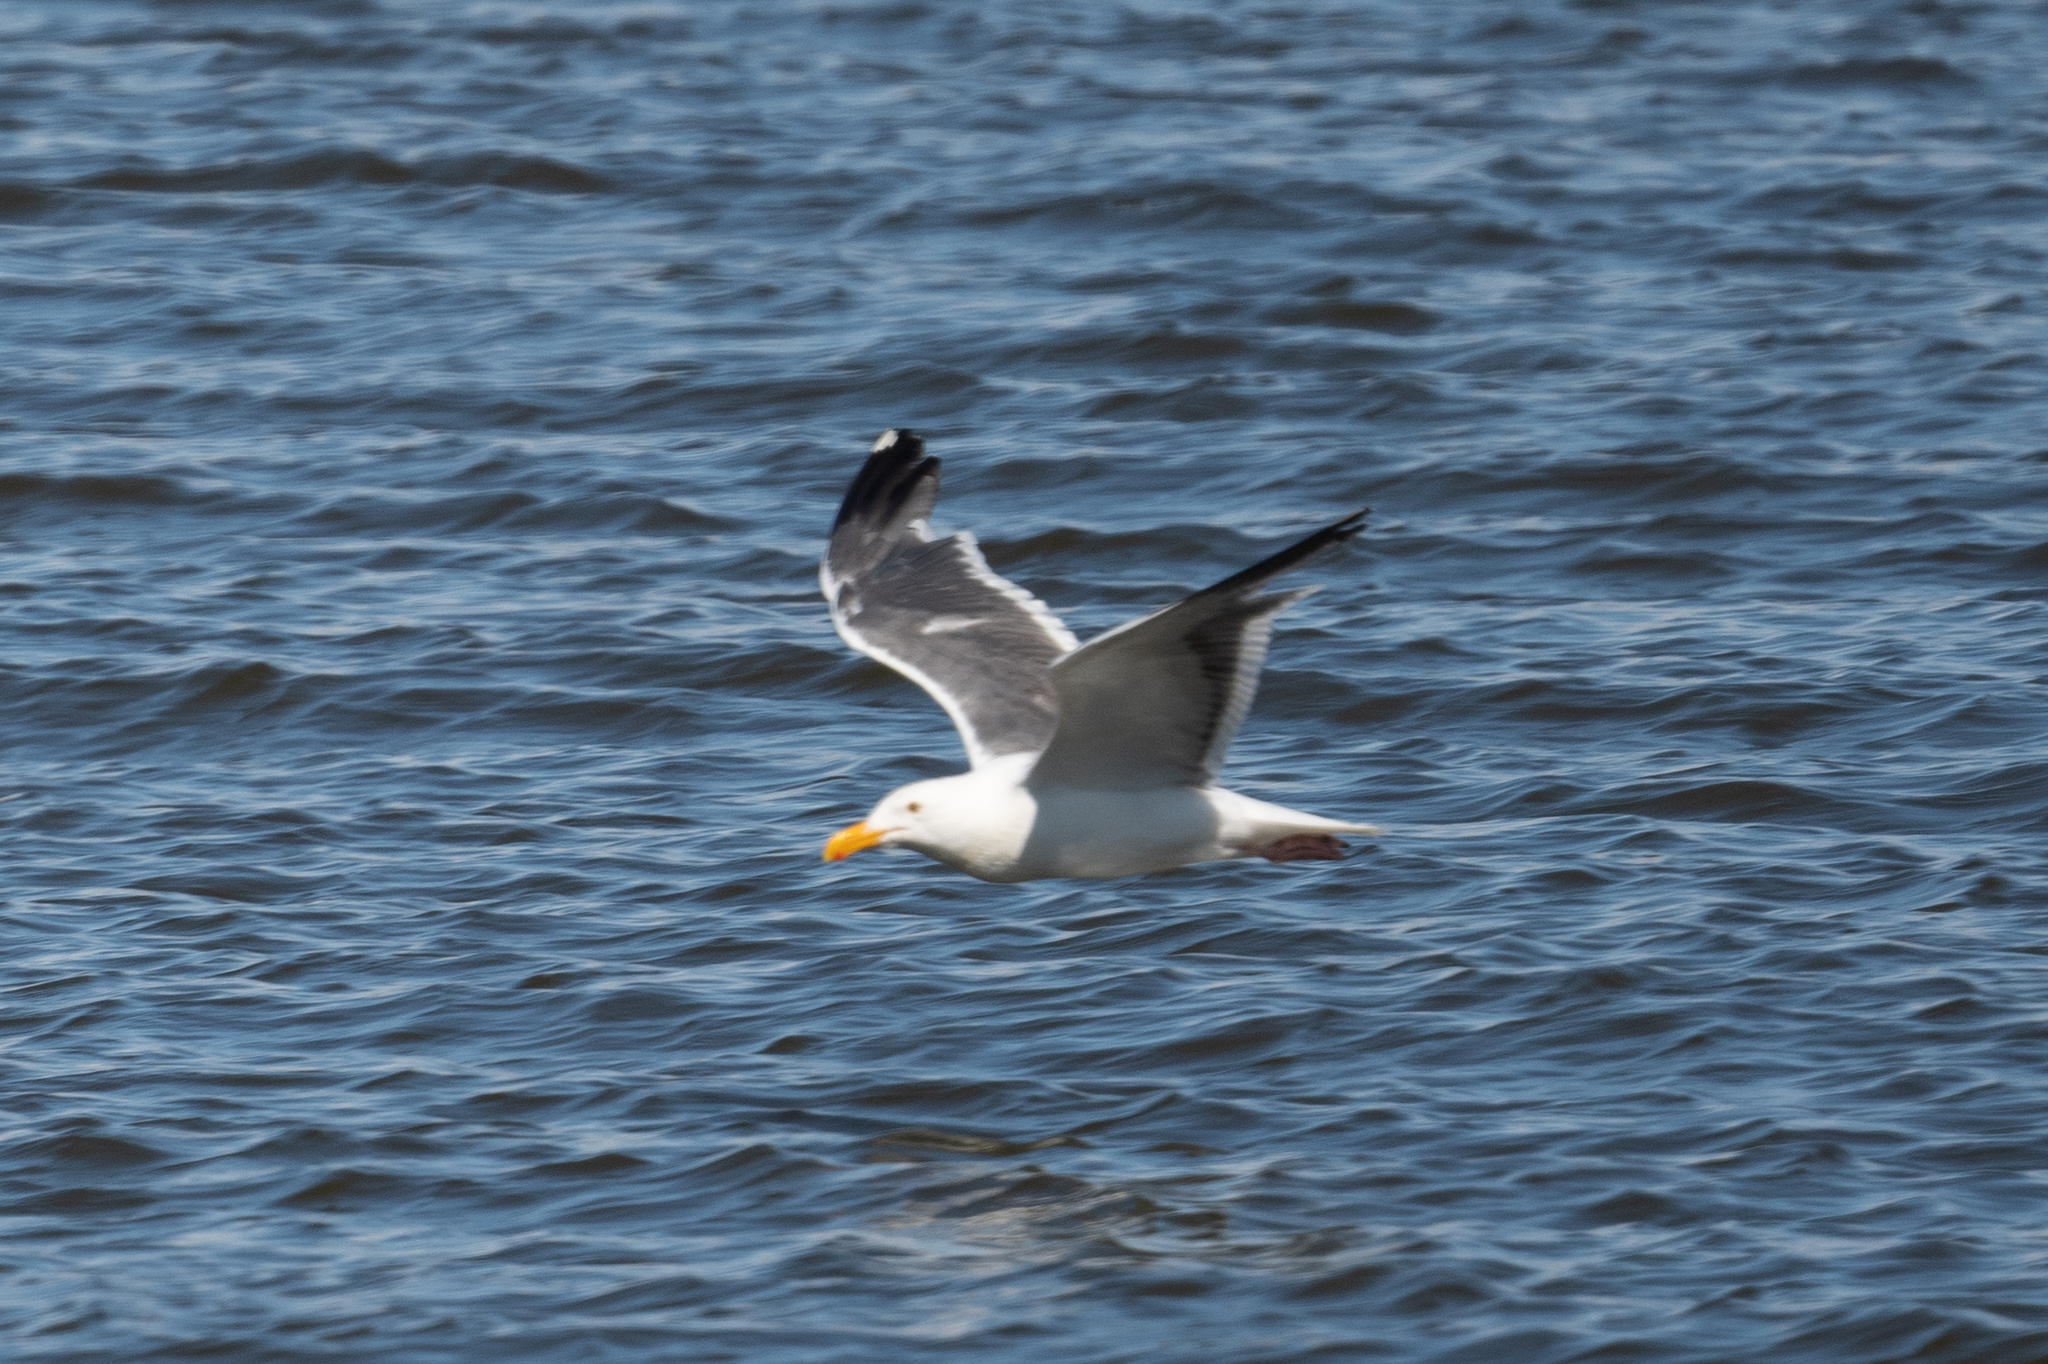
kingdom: Animalia
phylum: Chordata
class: Aves
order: Charadriiformes
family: Laridae
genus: Larus
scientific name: Larus occidentalis
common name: Western gull
